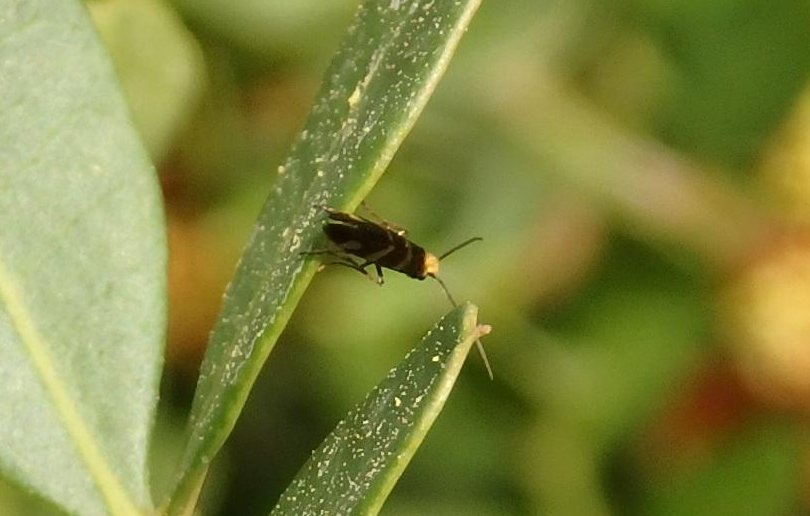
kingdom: Animalia
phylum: Arthropoda
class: Insecta
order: Lepidoptera
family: Micropterigidae
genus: Micropterix
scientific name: Micropterix ibericella
